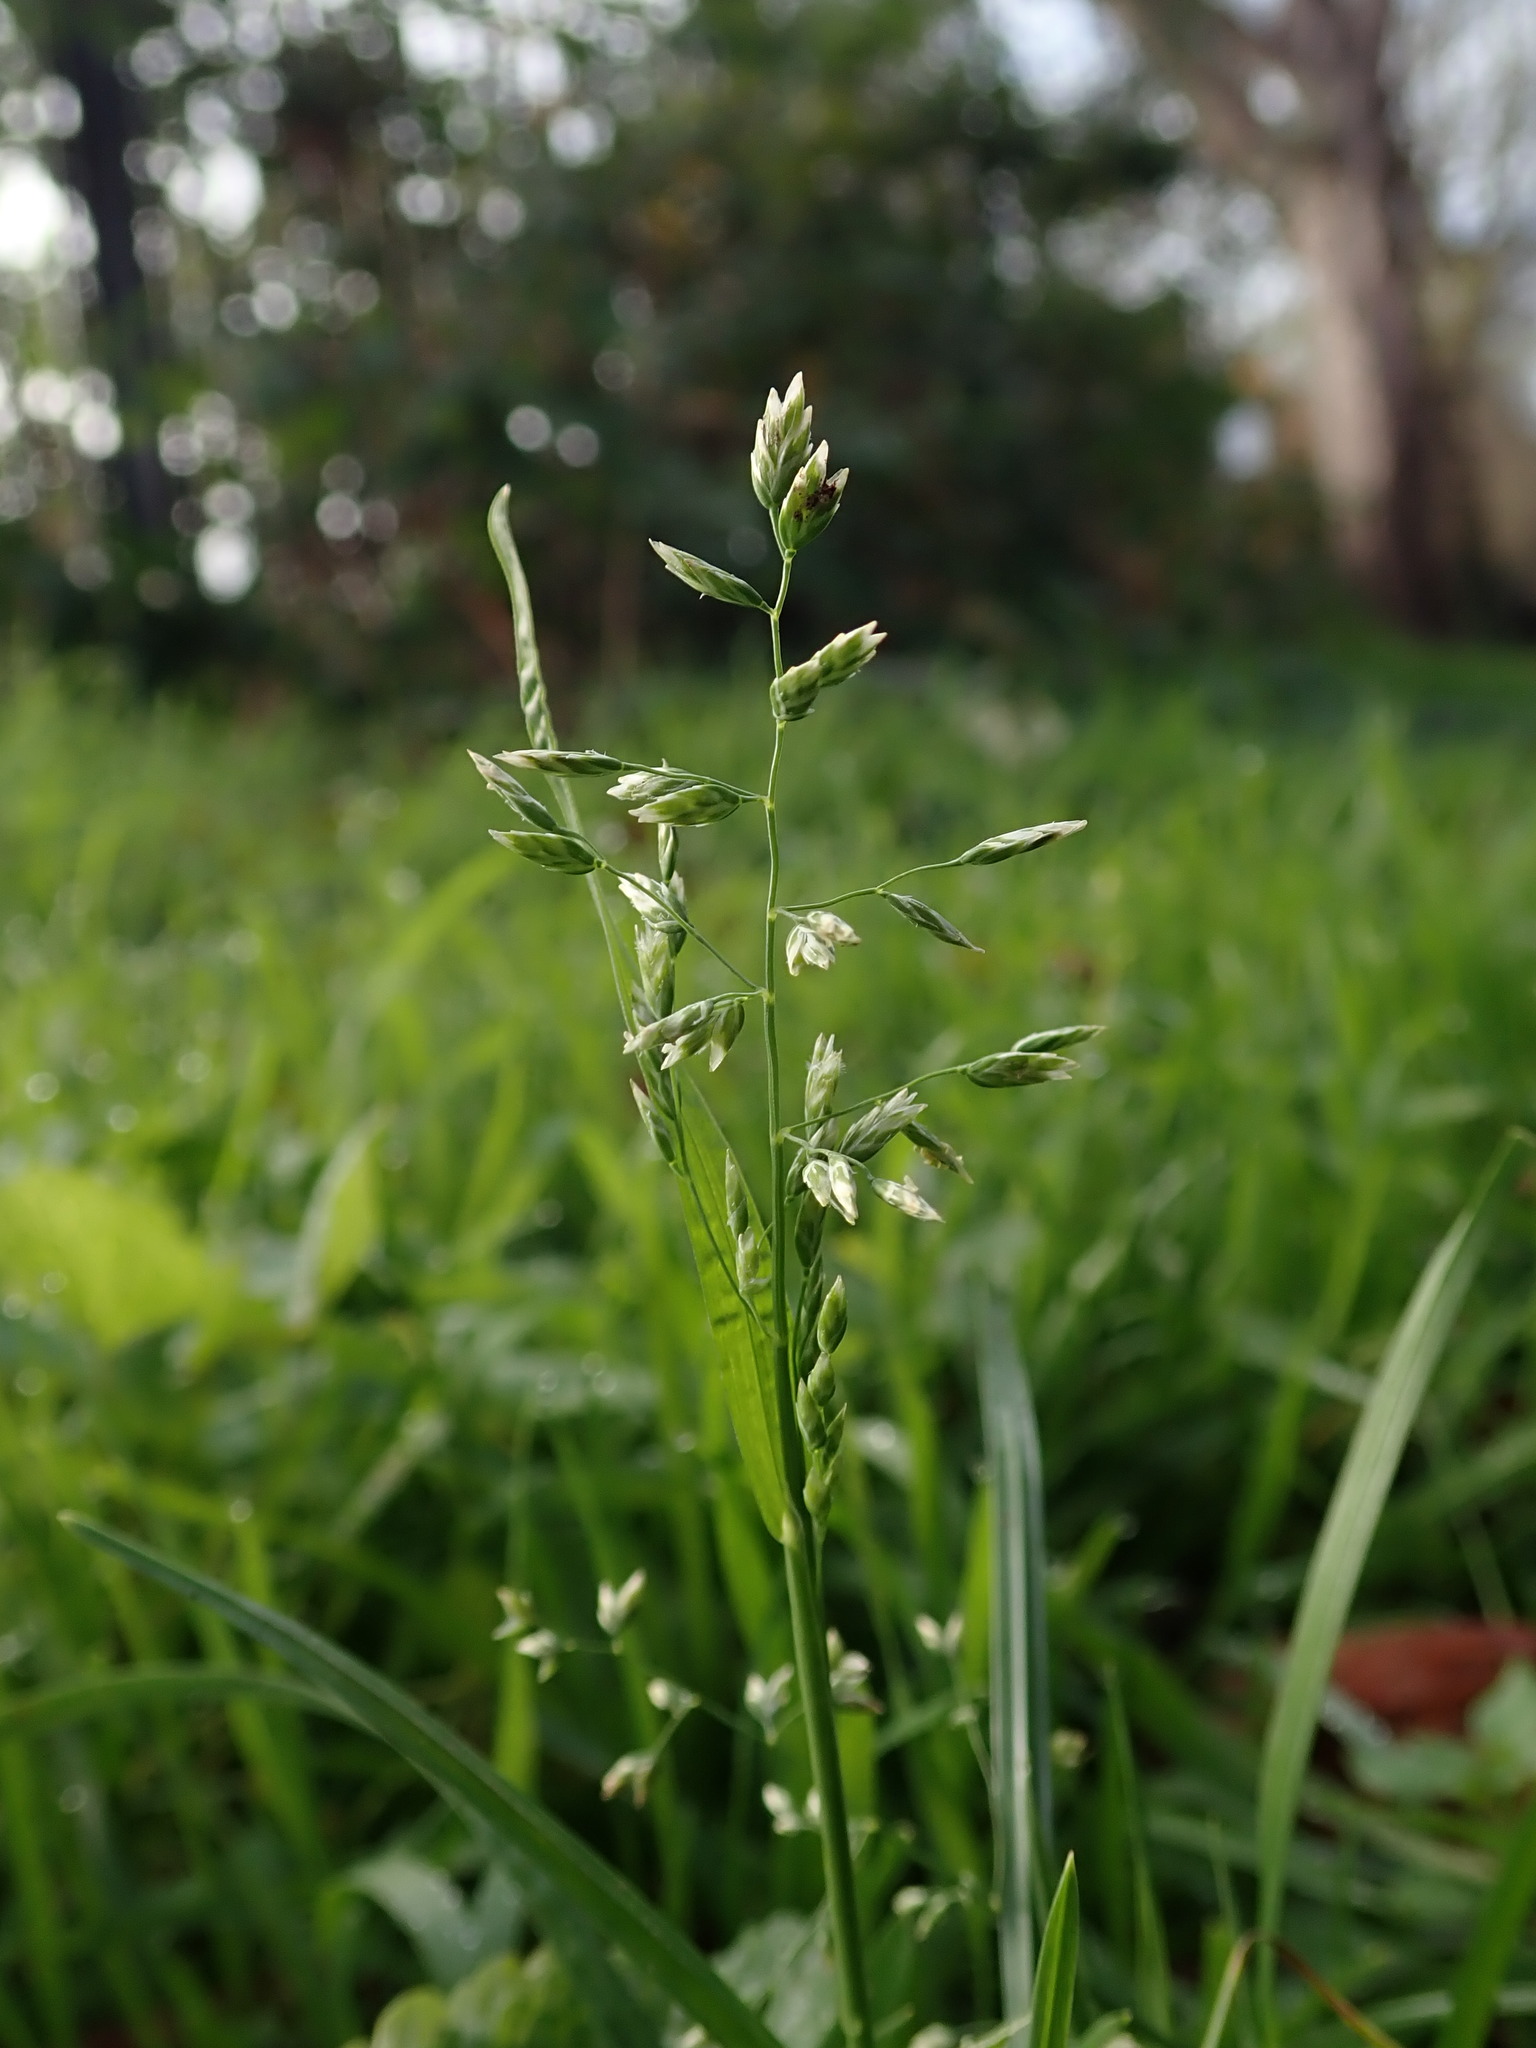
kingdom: Plantae
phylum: Tracheophyta
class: Liliopsida
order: Poales
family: Poaceae
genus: Poa
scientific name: Poa annua
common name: Annual bluegrass
